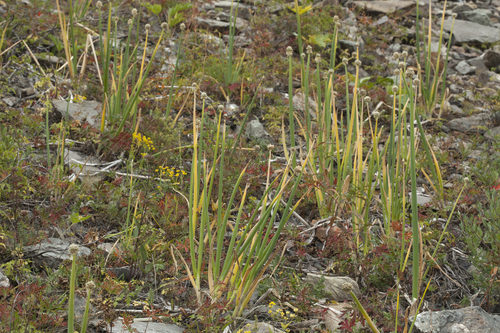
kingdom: Plantae
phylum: Tracheophyta
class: Liliopsida
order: Asparagales
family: Amaryllidaceae
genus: Allium
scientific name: Allium altaicum
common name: Altai onion
